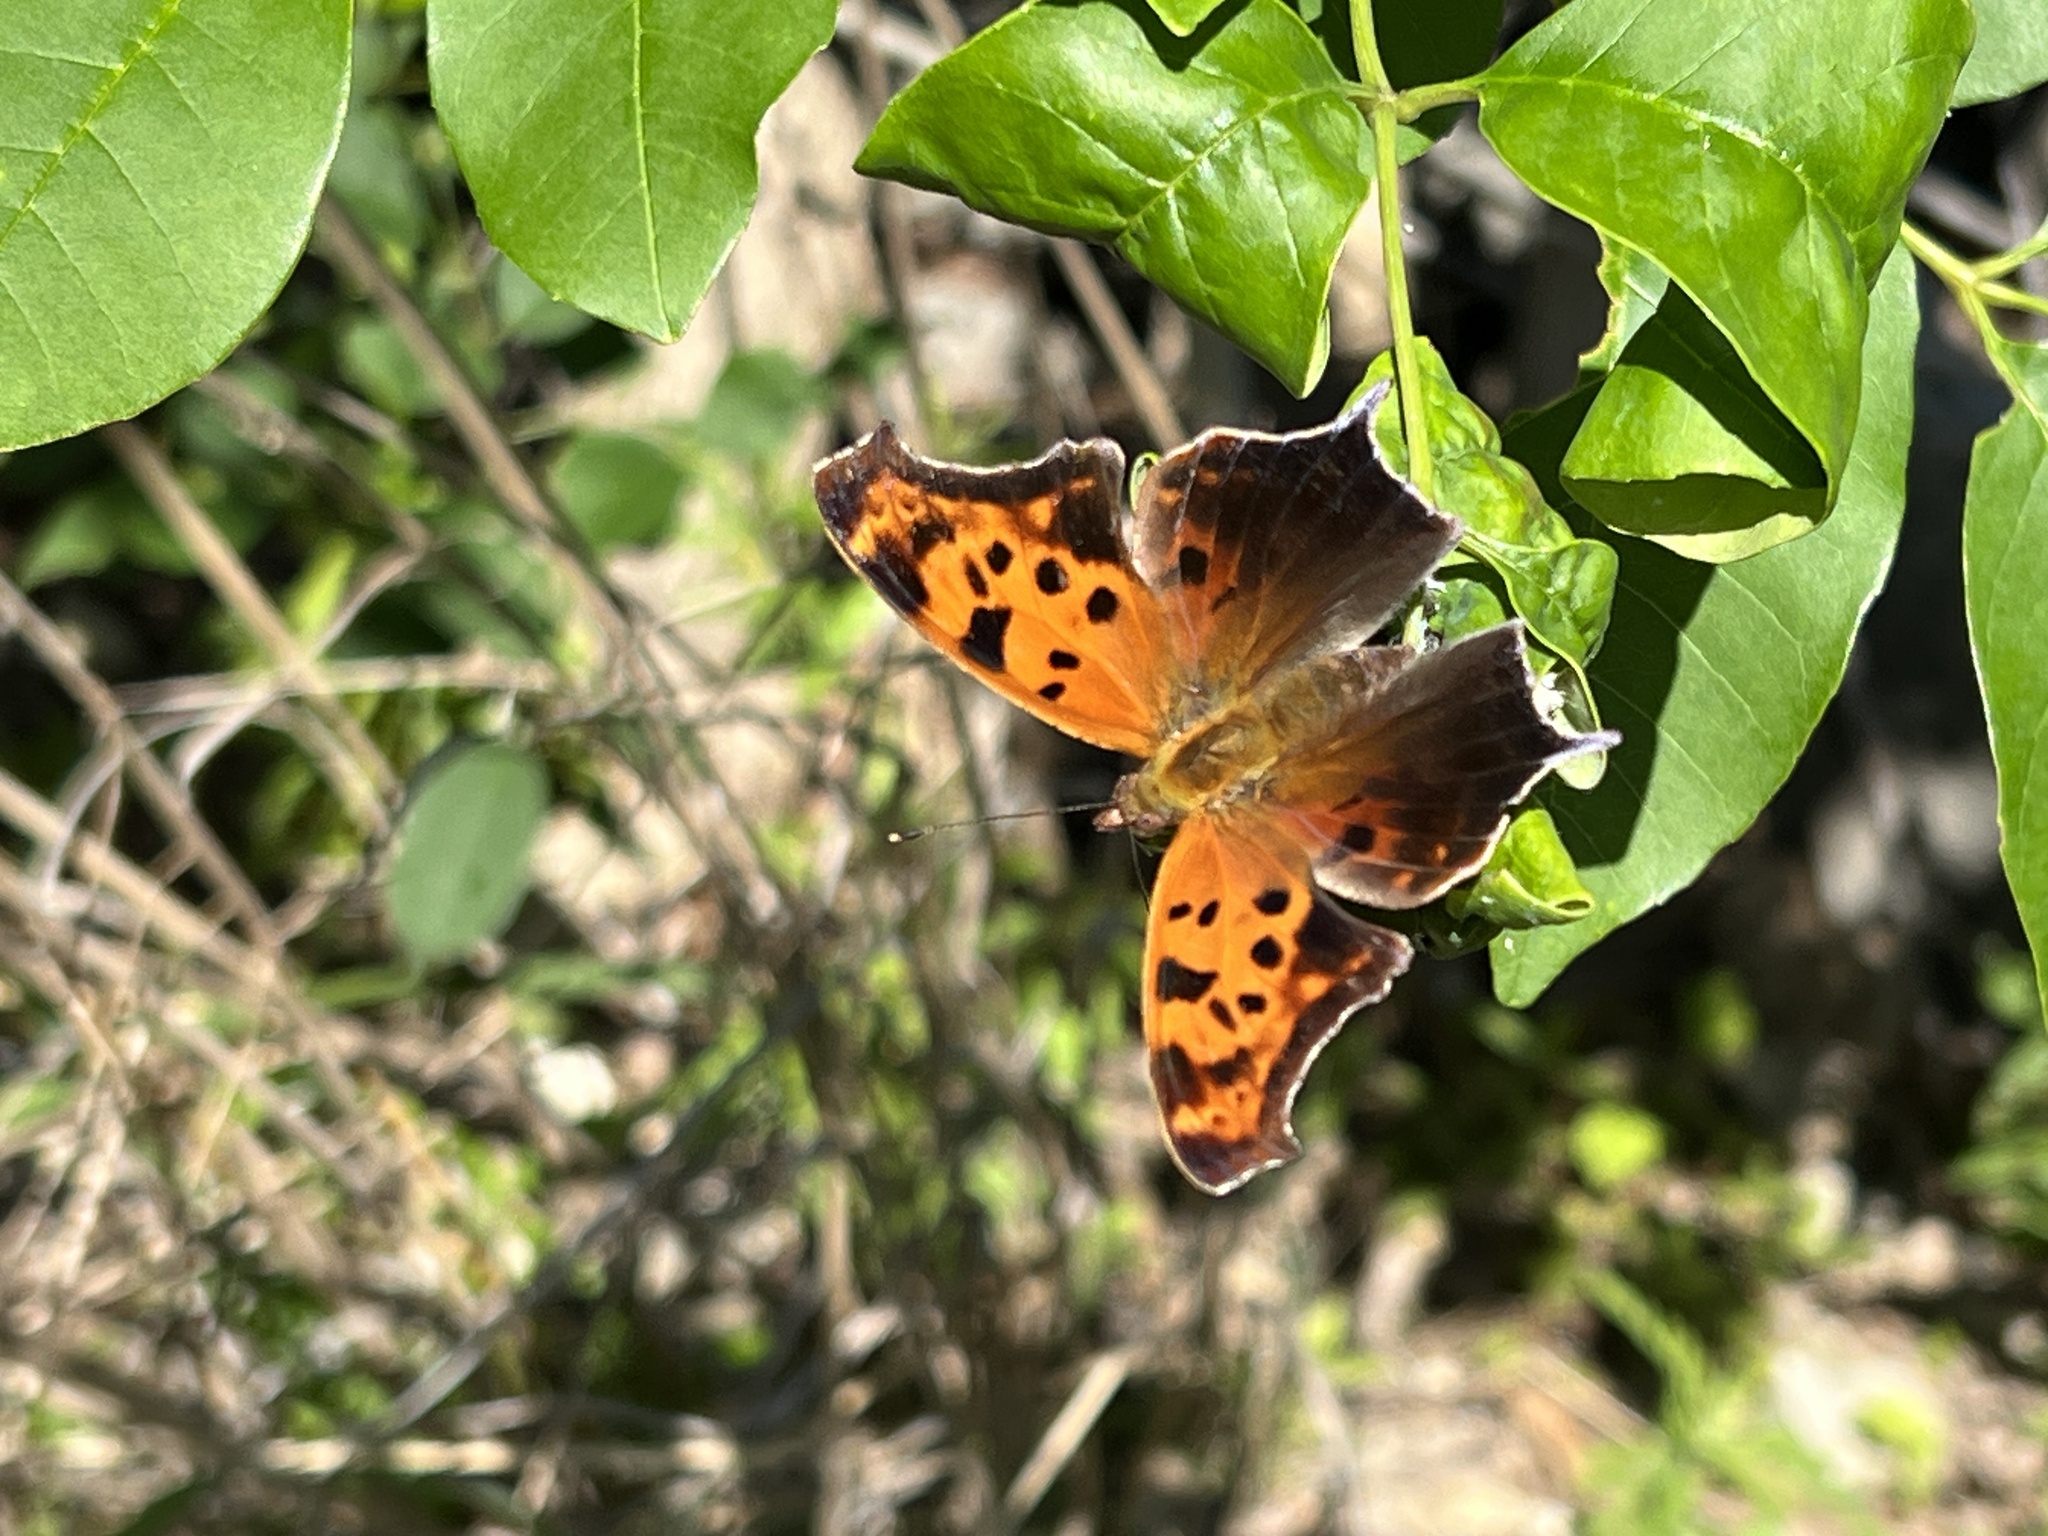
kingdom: Animalia
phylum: Arthropoda
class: Insecta
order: Lepidoptera
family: Nymphalidae
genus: Polygonia
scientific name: Polygonia interrogationis
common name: Question mark
